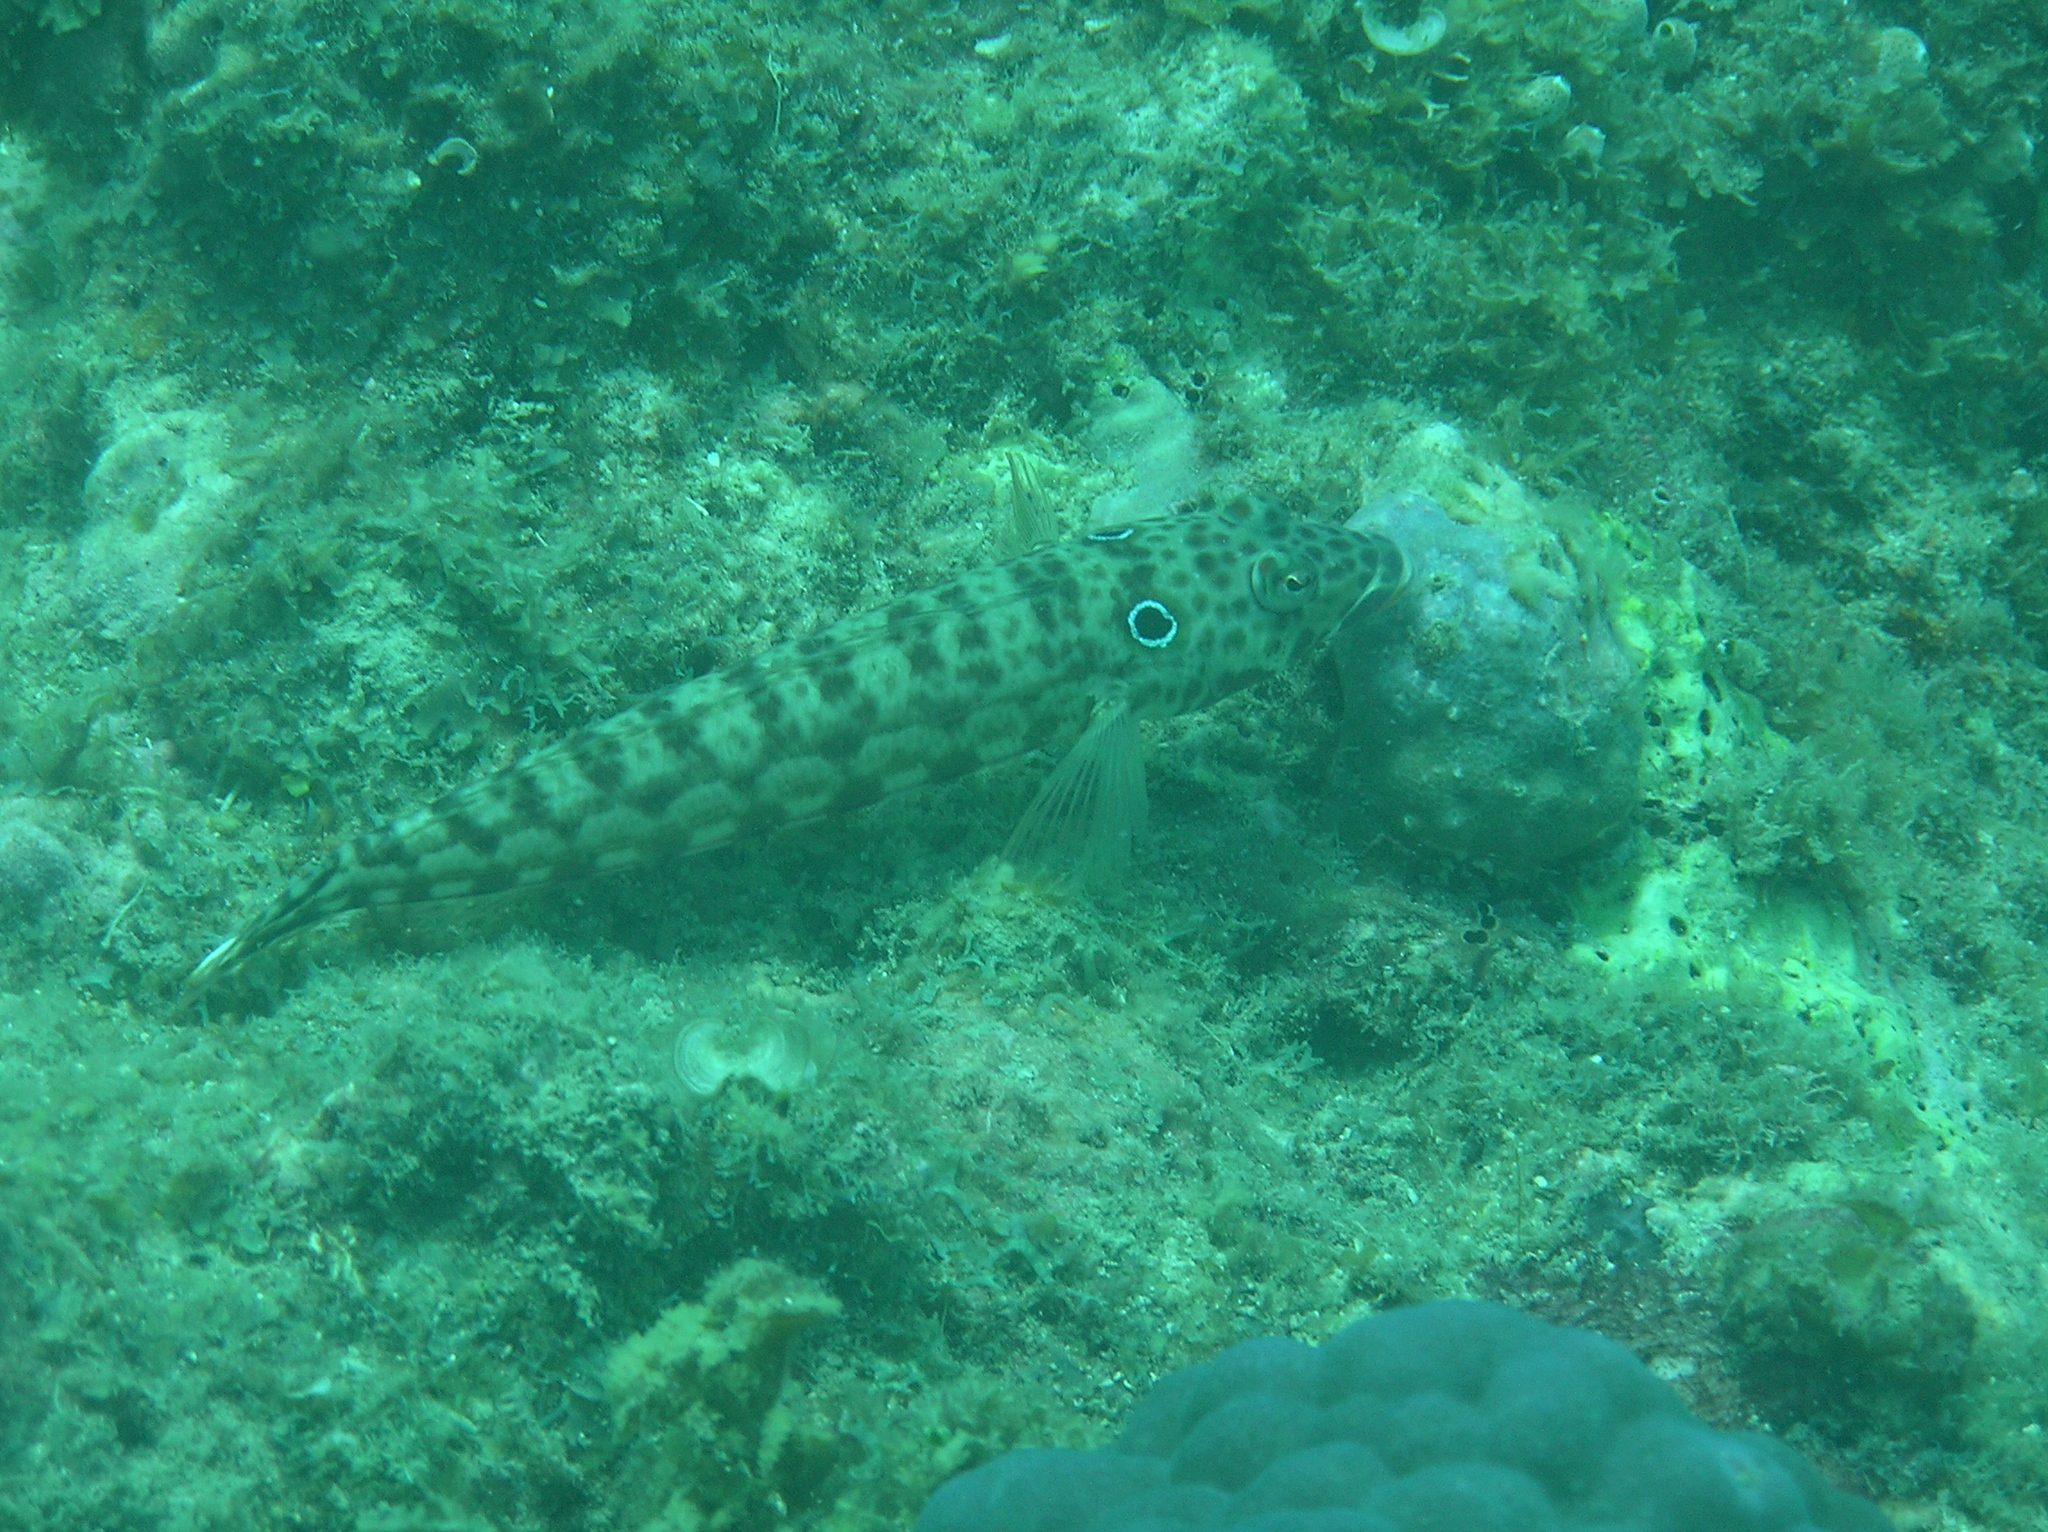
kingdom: Animalia
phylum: Chordata
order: Perciformes
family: Pinguipedidae
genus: Parapercis
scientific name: Parapercis clathrata
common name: Latticed sandperch
